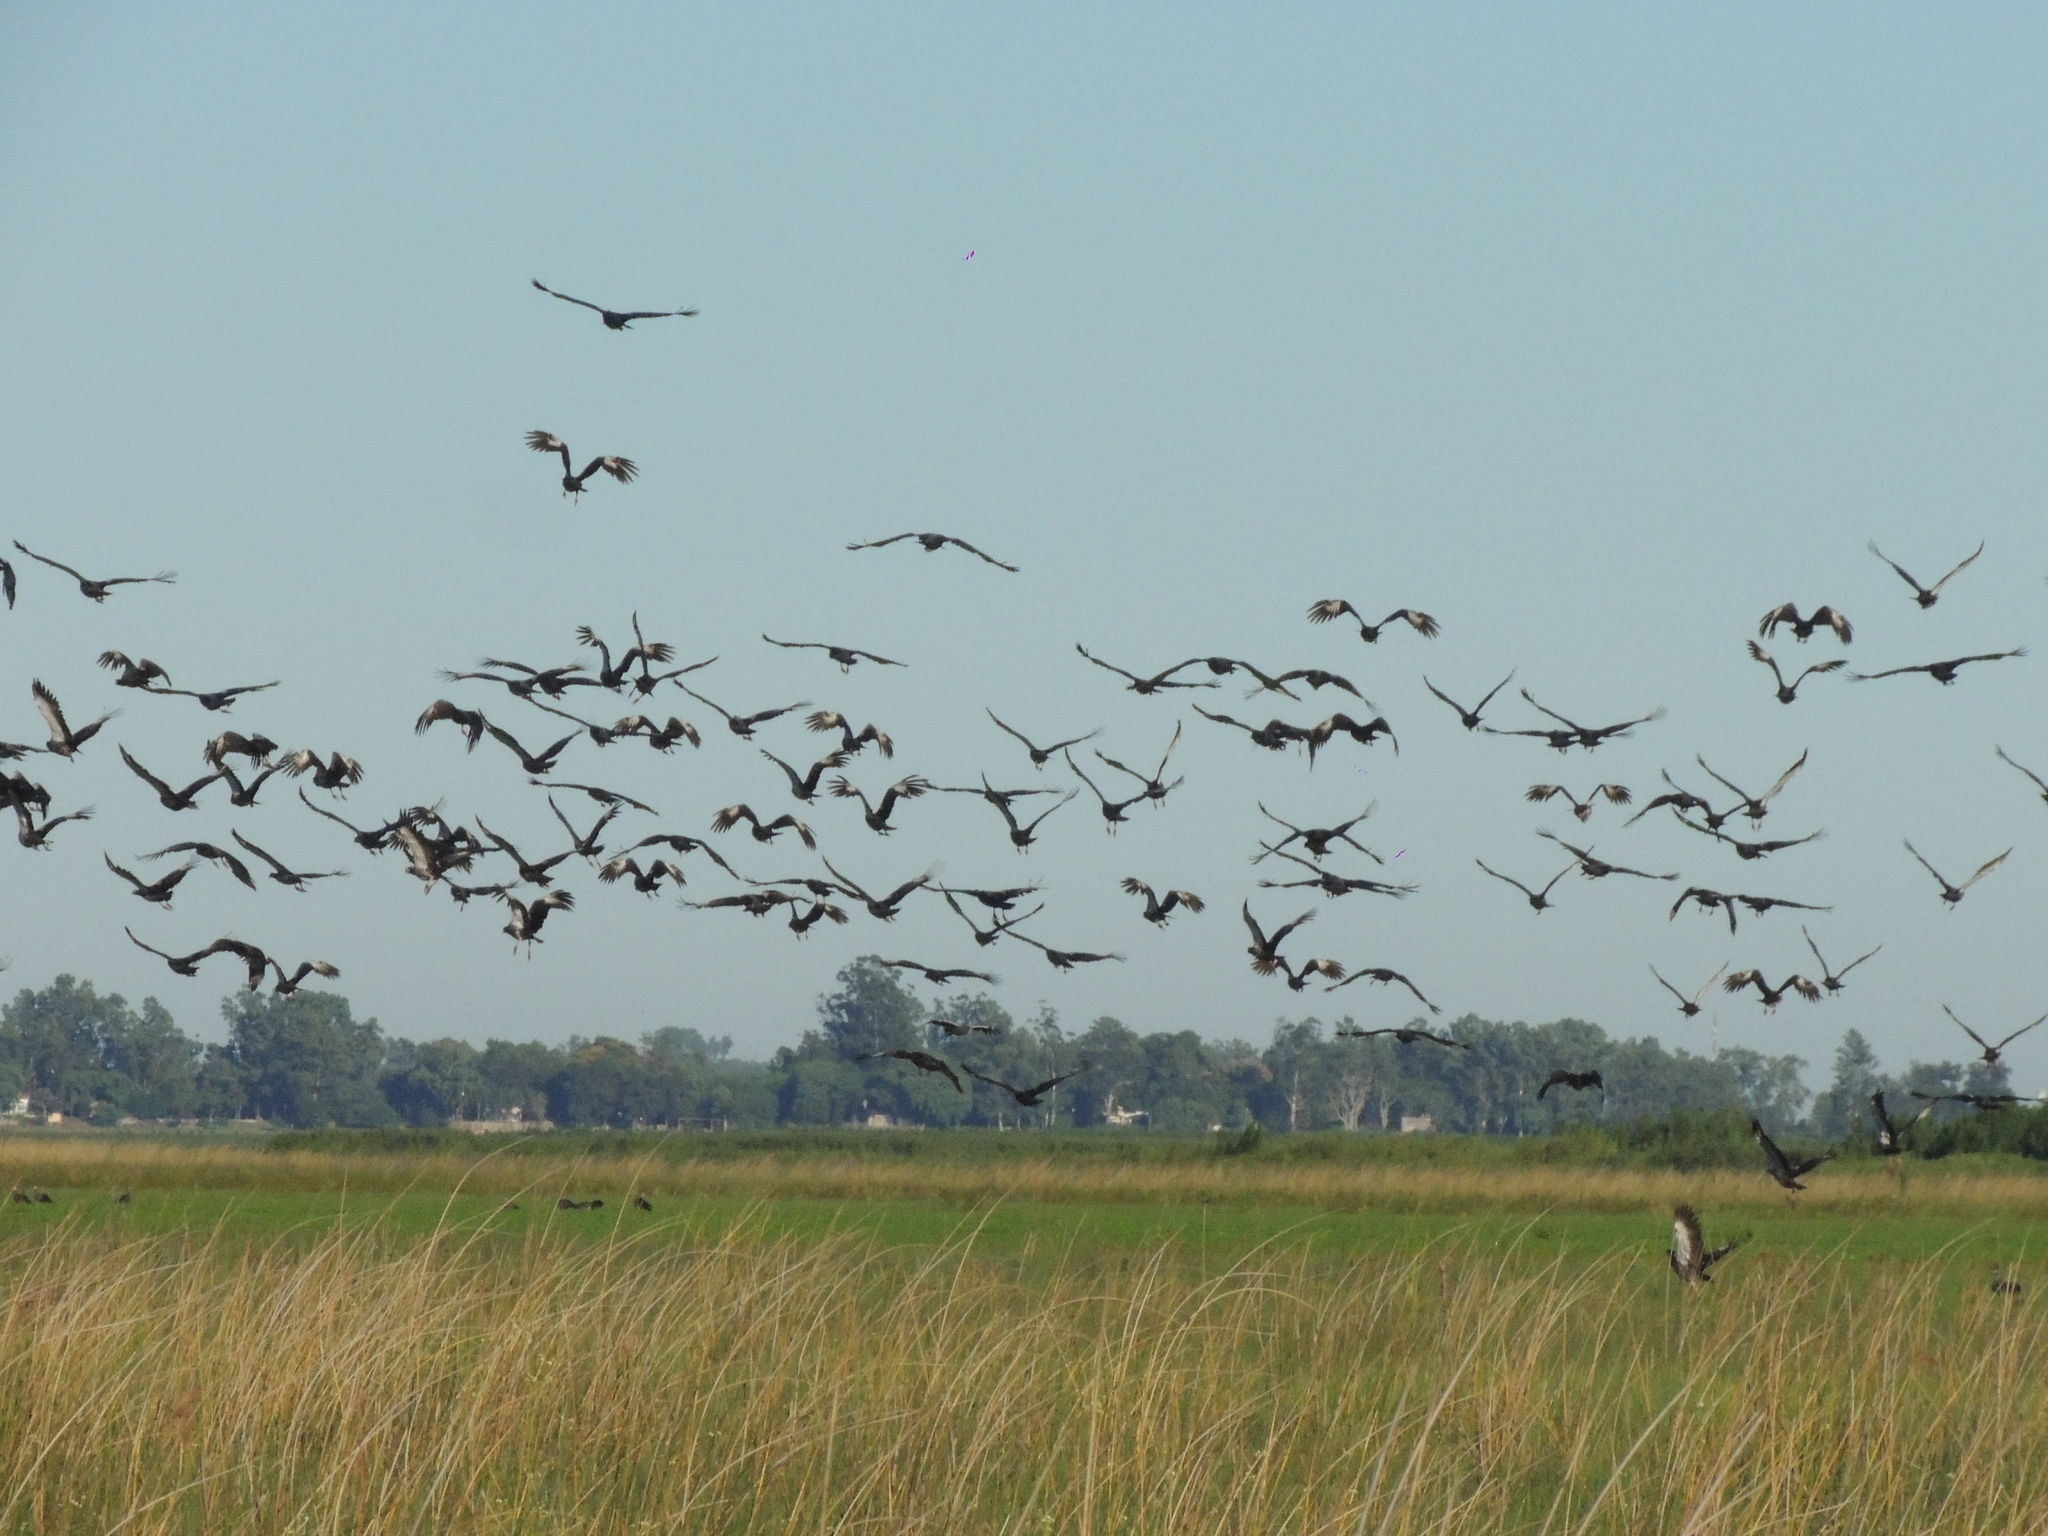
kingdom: Animalia
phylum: Chordata
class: Aves
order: Anseriformes
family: Anhimidae
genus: Chauna
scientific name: Chauna torquata
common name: Southern screamer
